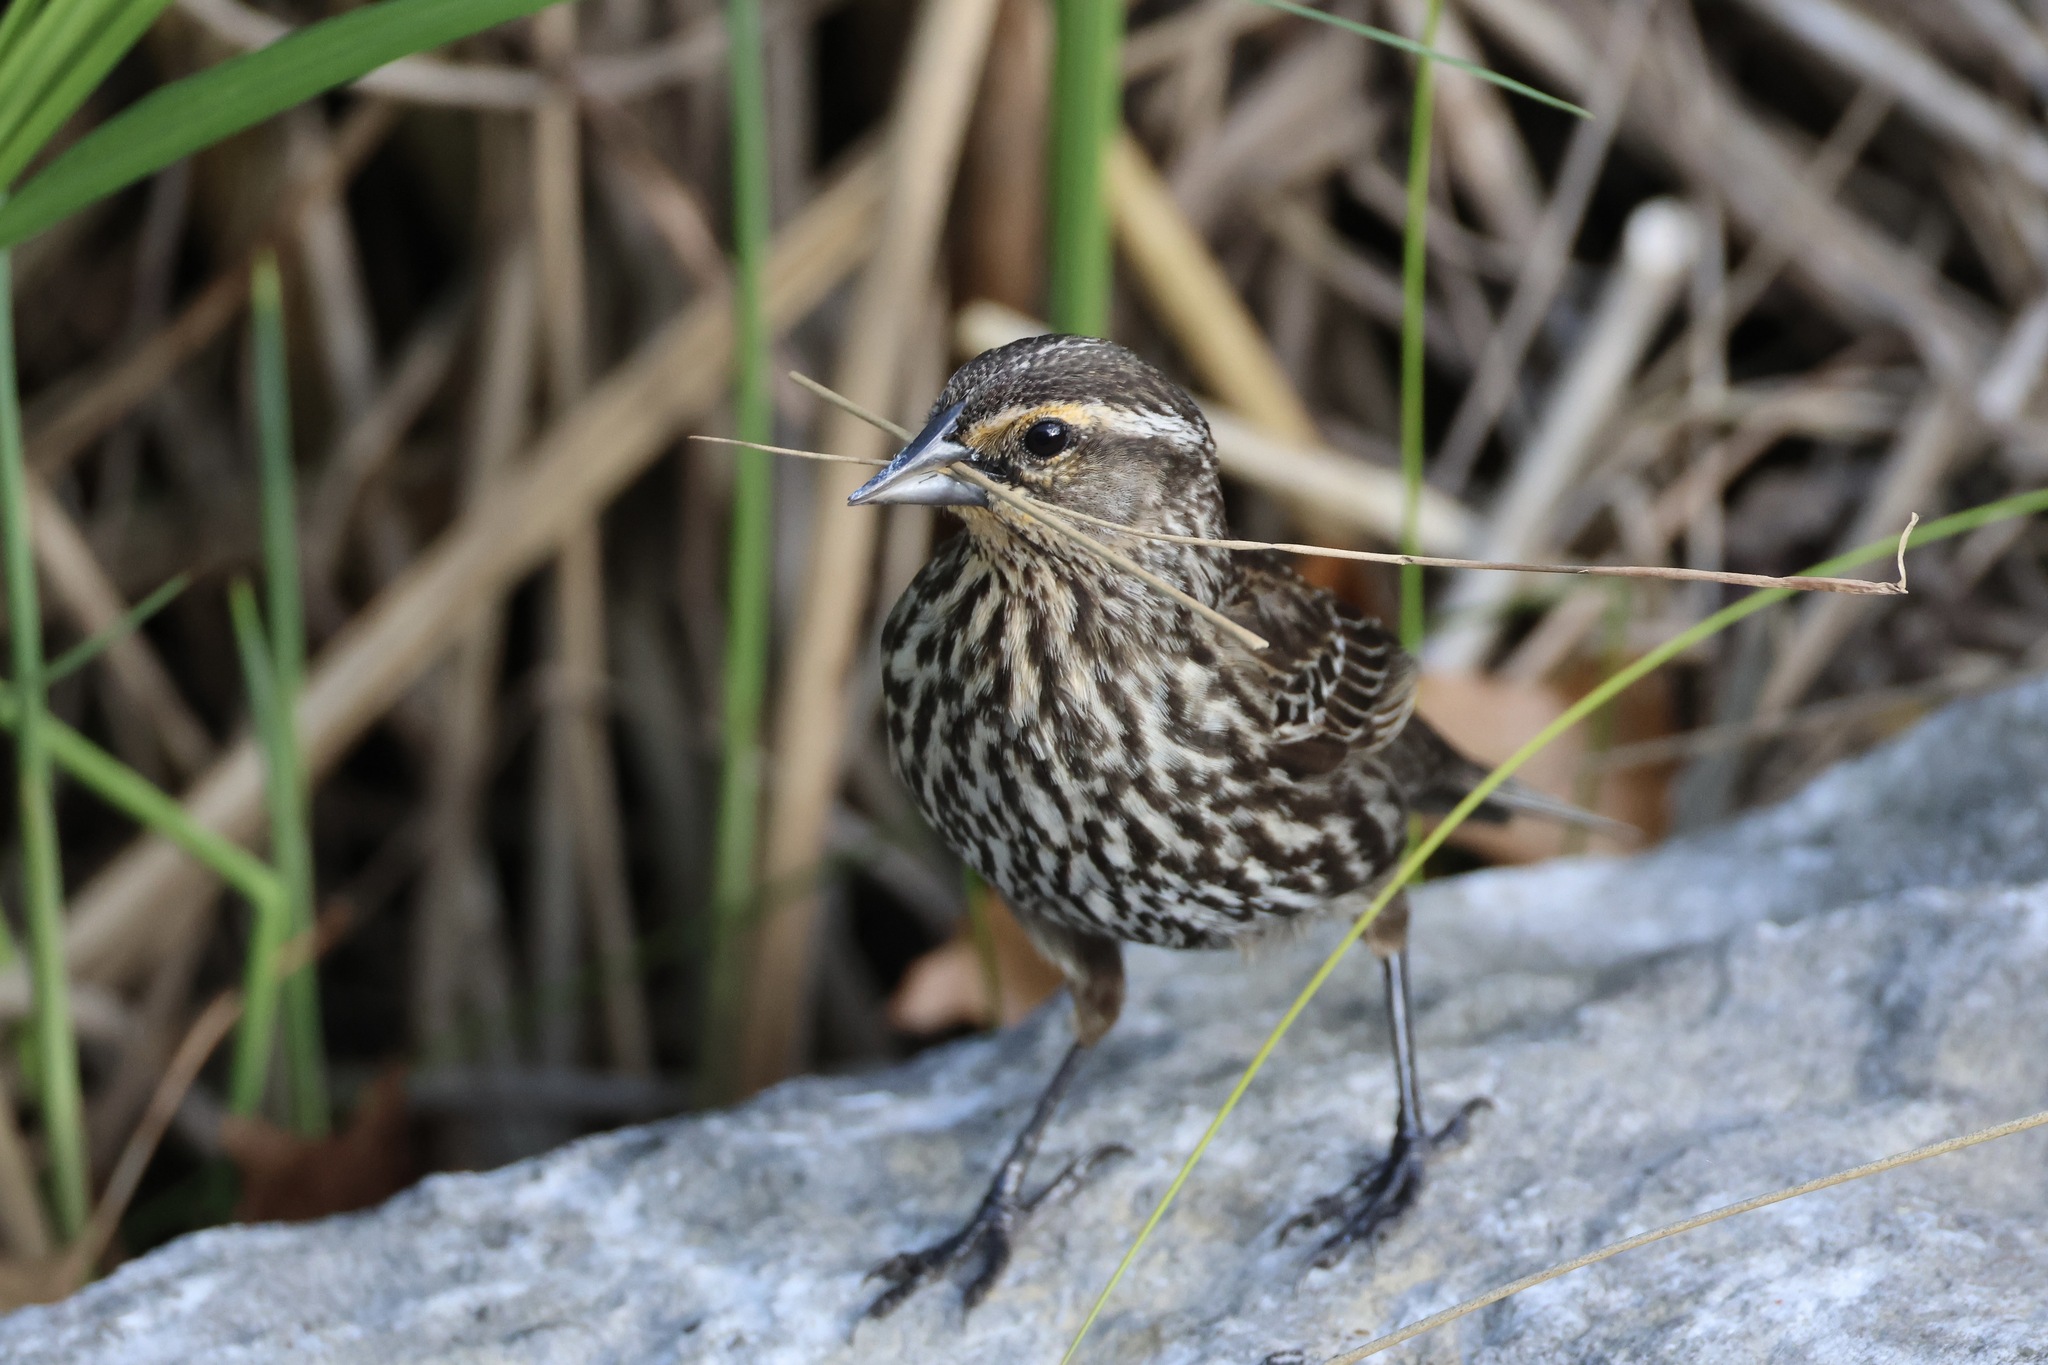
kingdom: Animalia
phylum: Chordata
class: Aves
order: Passeriformes
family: Icteridae
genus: Agelaius
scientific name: Agelaius phoeniceus
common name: Red-winged blackbird
